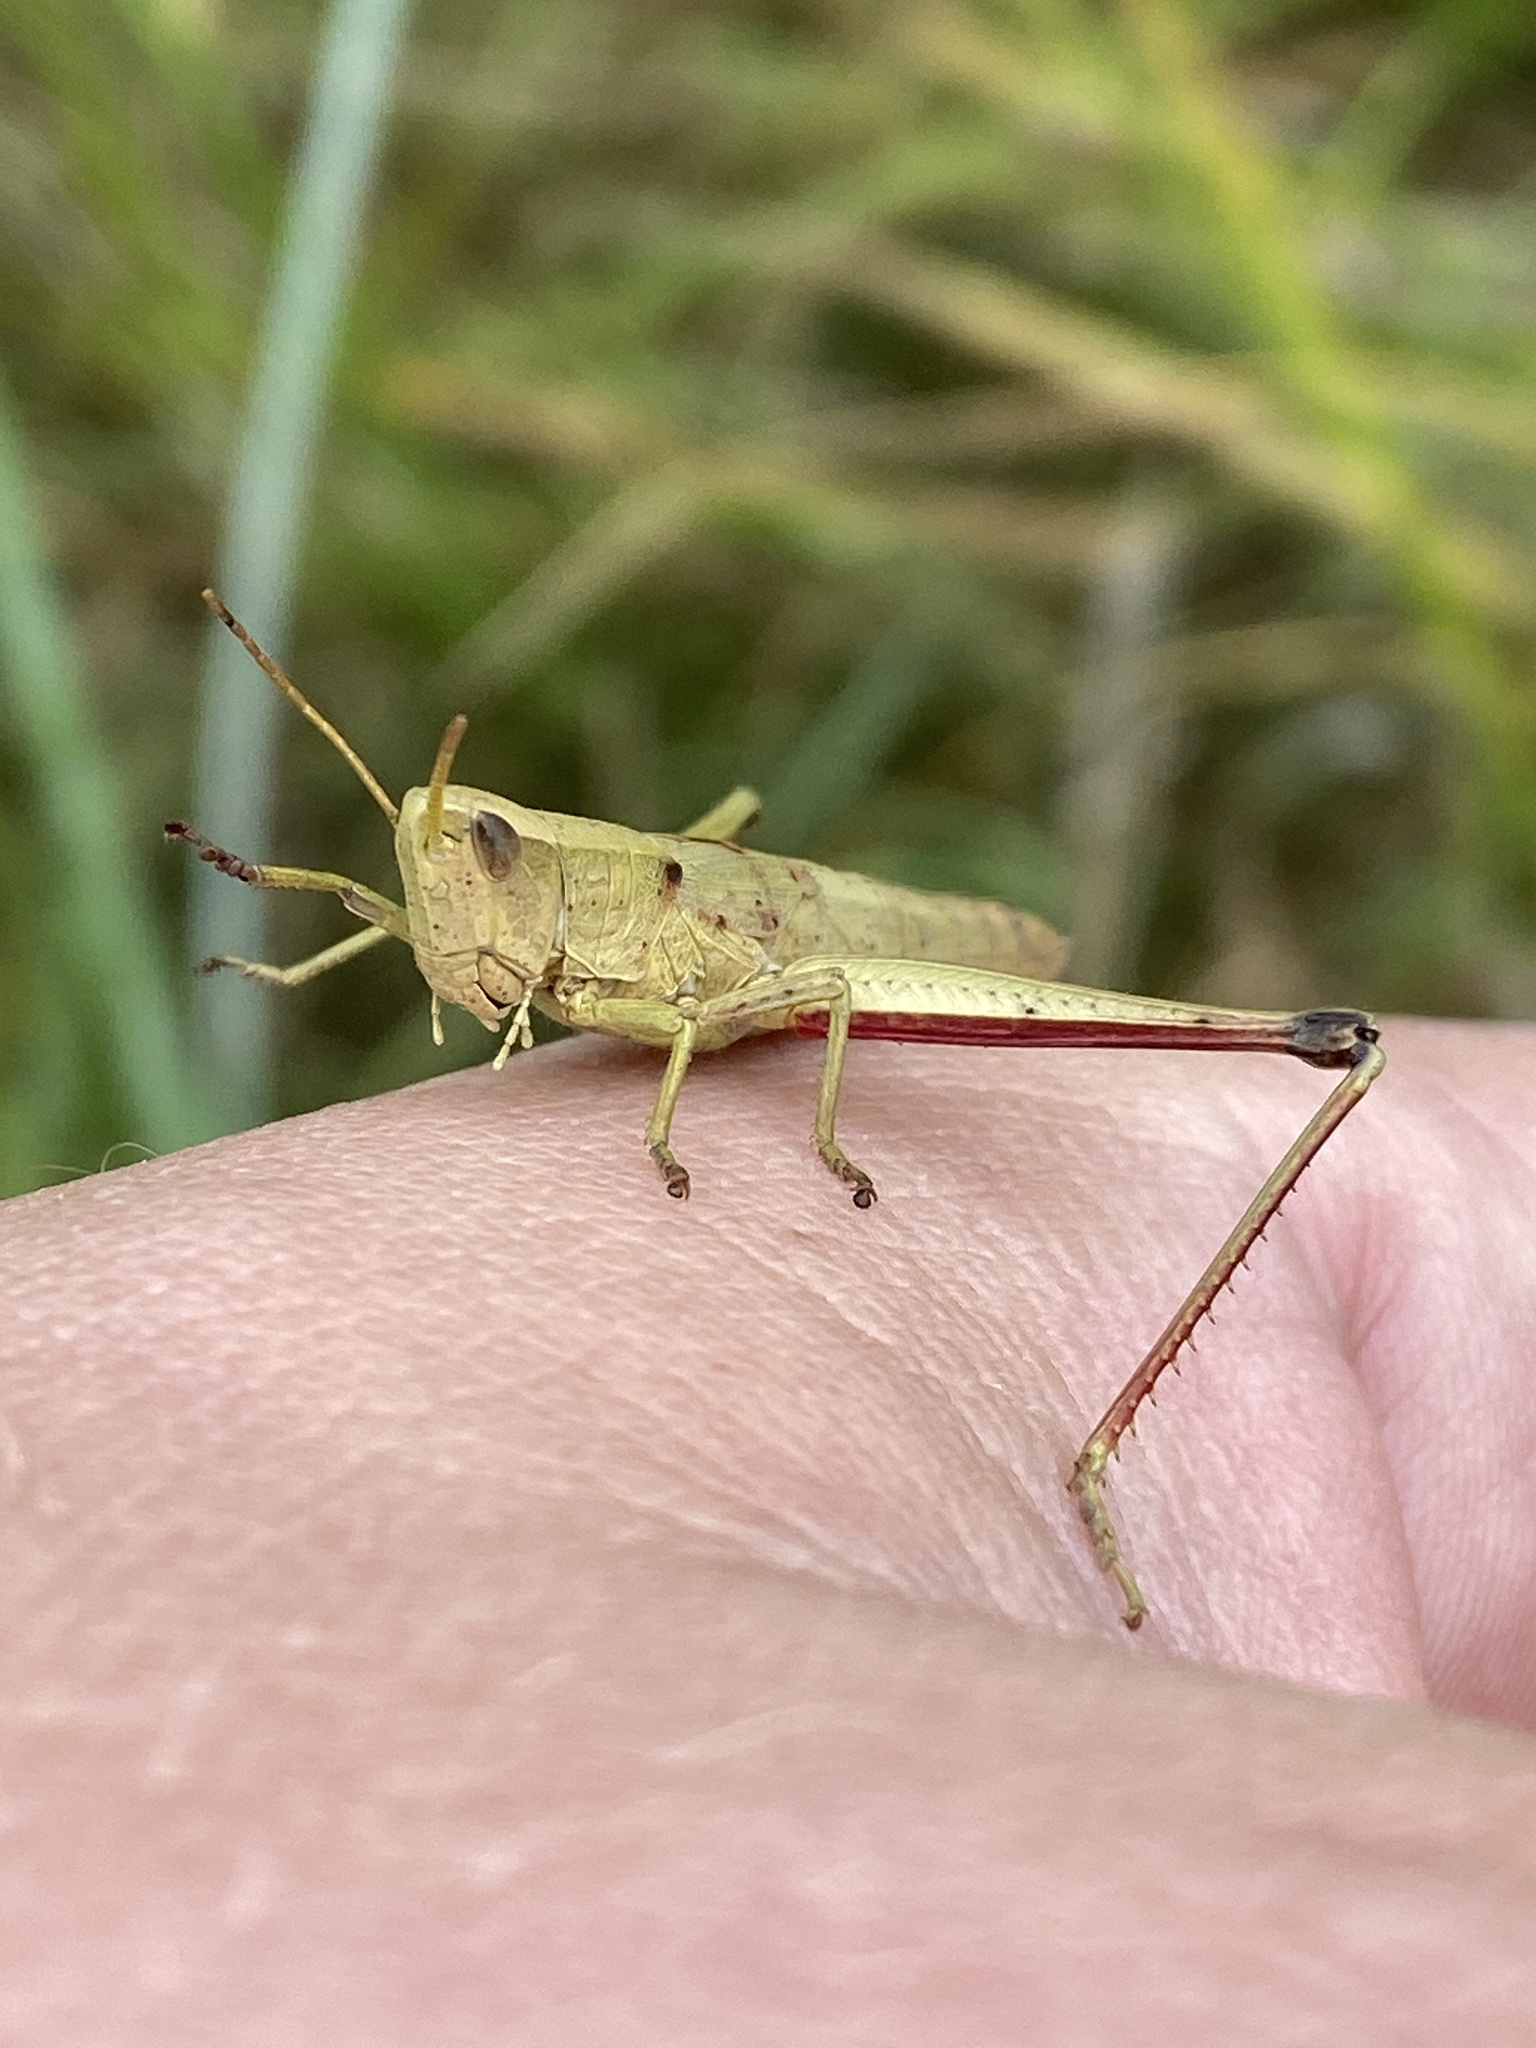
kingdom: Animalia
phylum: Arthropoda
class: Insecta
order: Orthoptera
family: Acrididae
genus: Chrysochraon
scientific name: Chrysochraon dispar
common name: Large gold grasshopper
